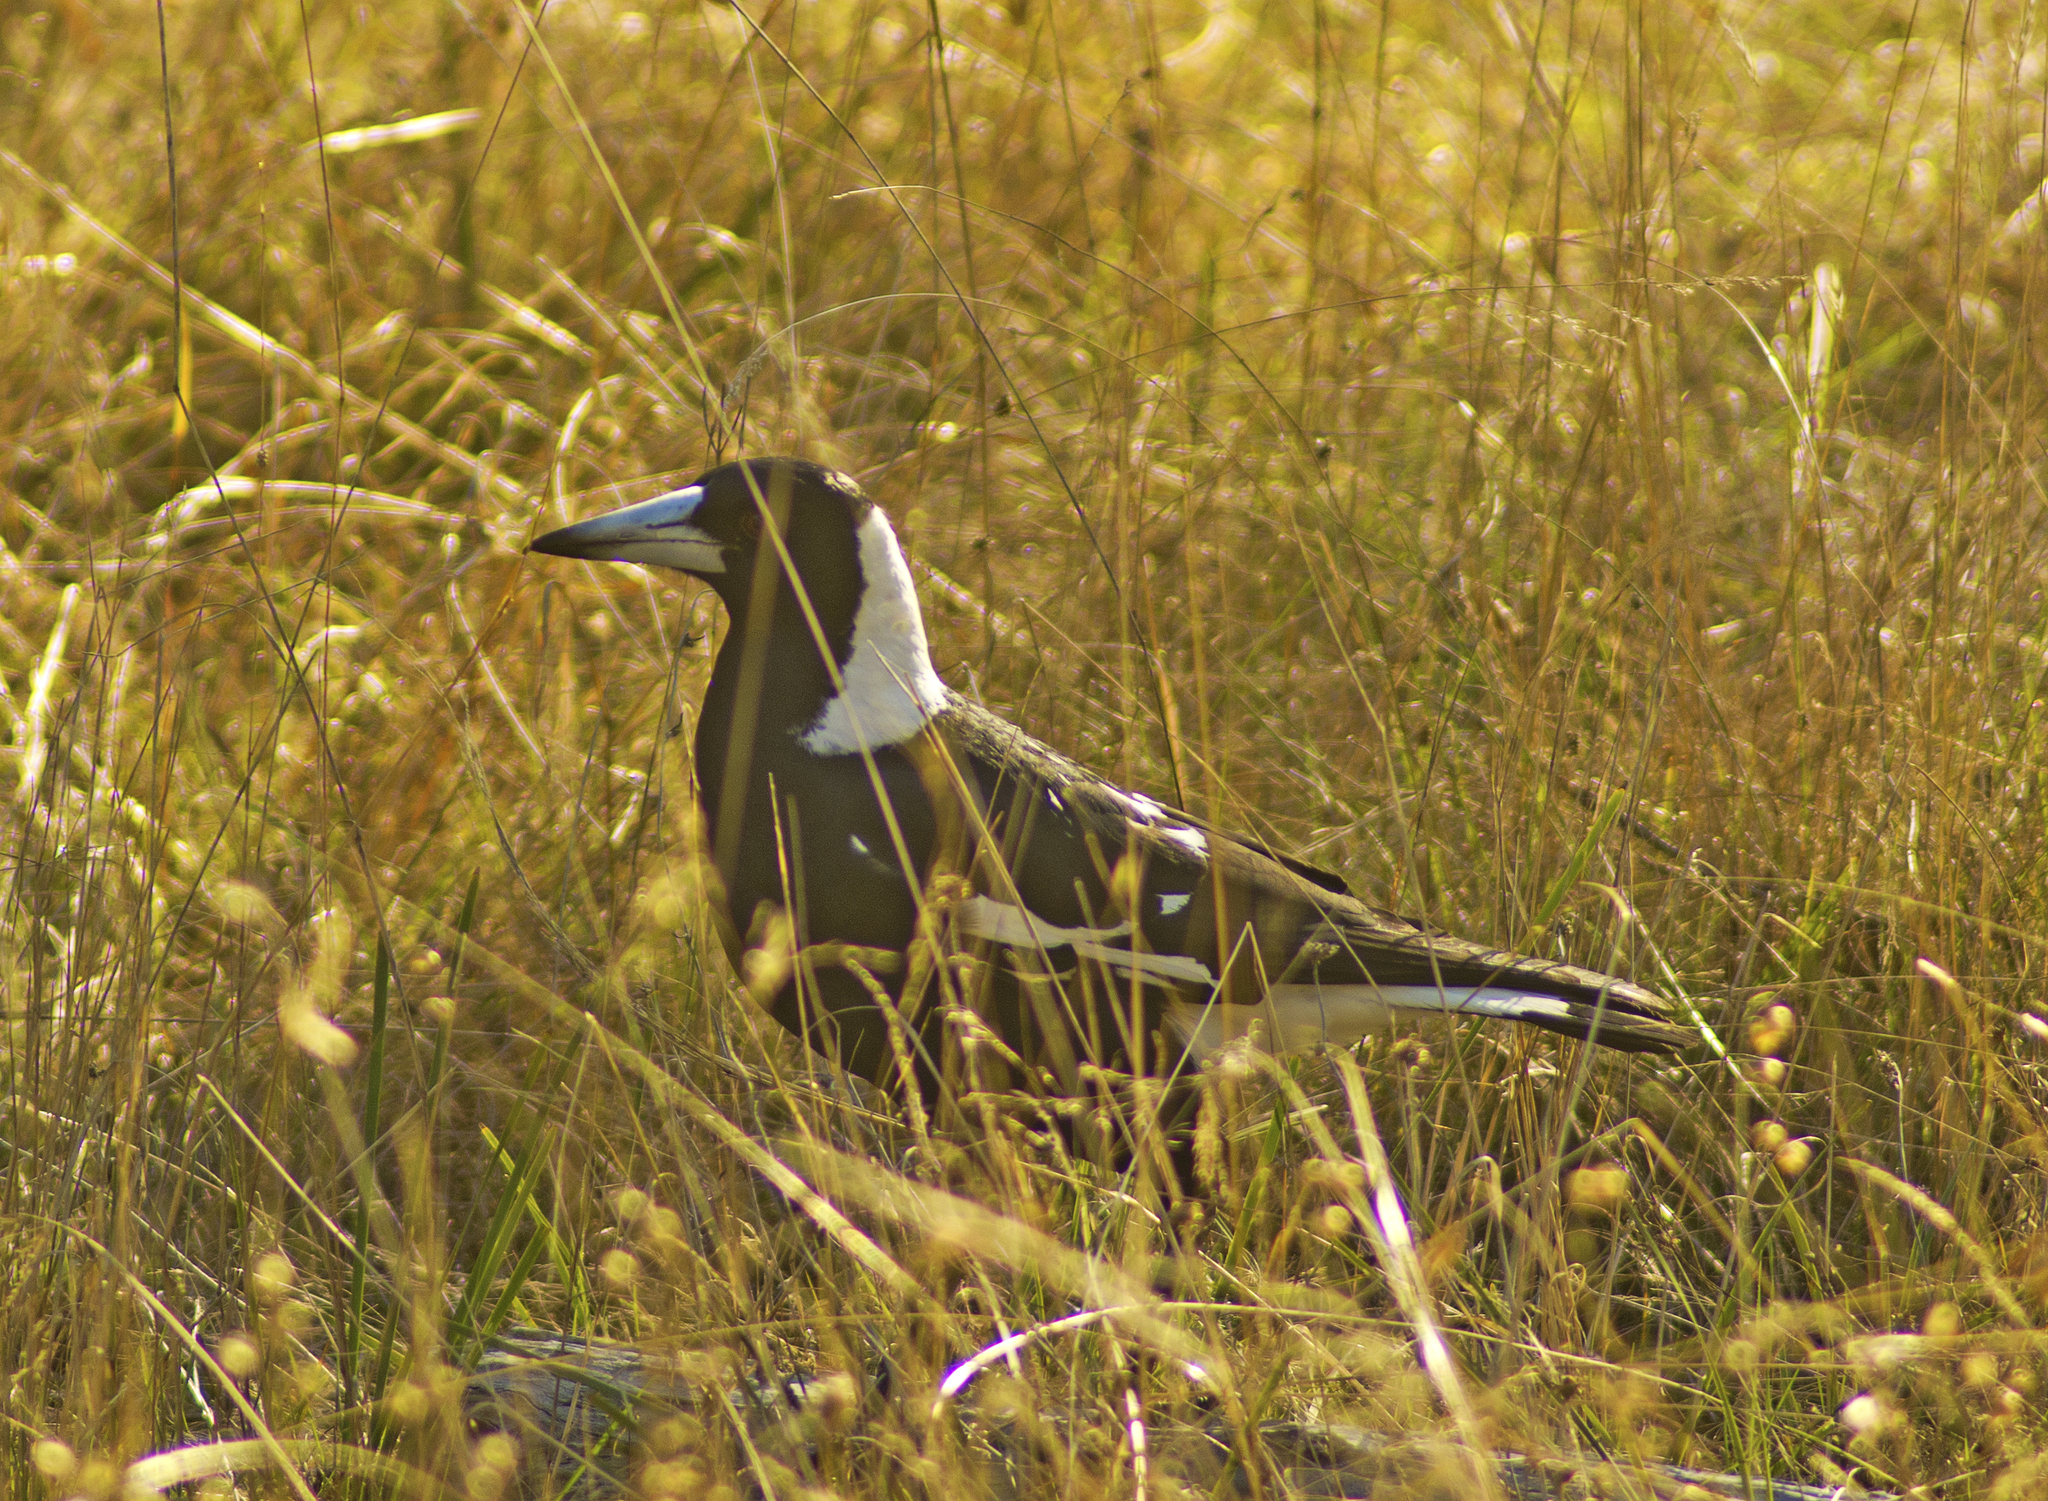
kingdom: Animalia
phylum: Chordata
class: Aves
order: Passeriformes
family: Cracticidae
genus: Gymnorhina
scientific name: Gymnorhina tibicen
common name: Australian magpie
